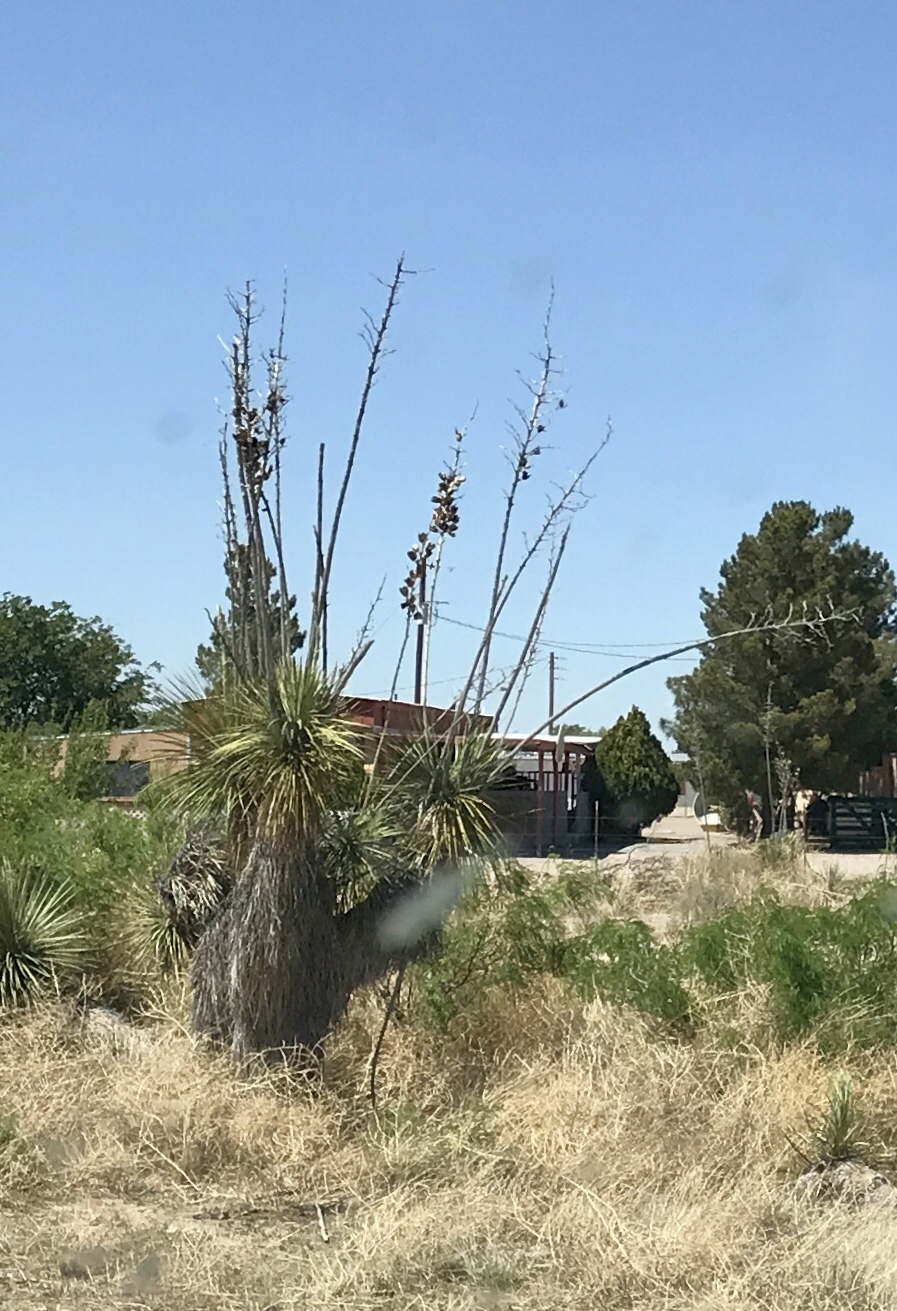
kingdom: Plantae
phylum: Tracheophyta
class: Liliopsida
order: Asparagales
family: Asparagaceae
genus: Yucca
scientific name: Yucca elata
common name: Palmella
